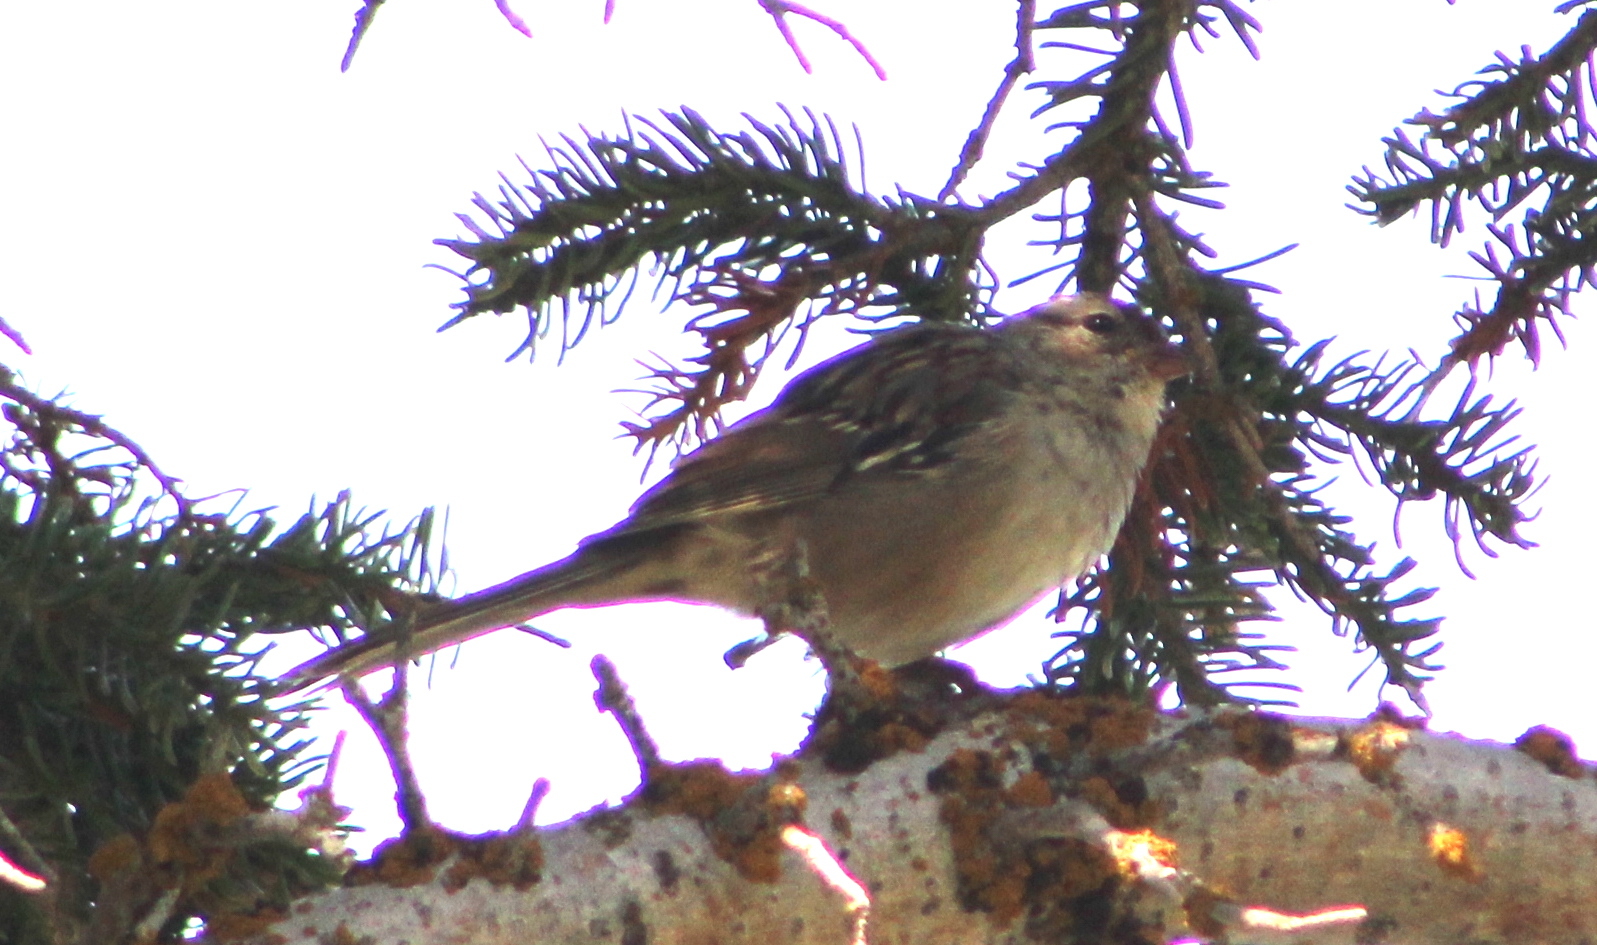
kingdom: Animalia
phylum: Chordata
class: Aves
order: Passeriformes
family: Passerellidae
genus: Zonotrichia
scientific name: Zonotrichia leucophrys
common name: White-crowned sparrow
